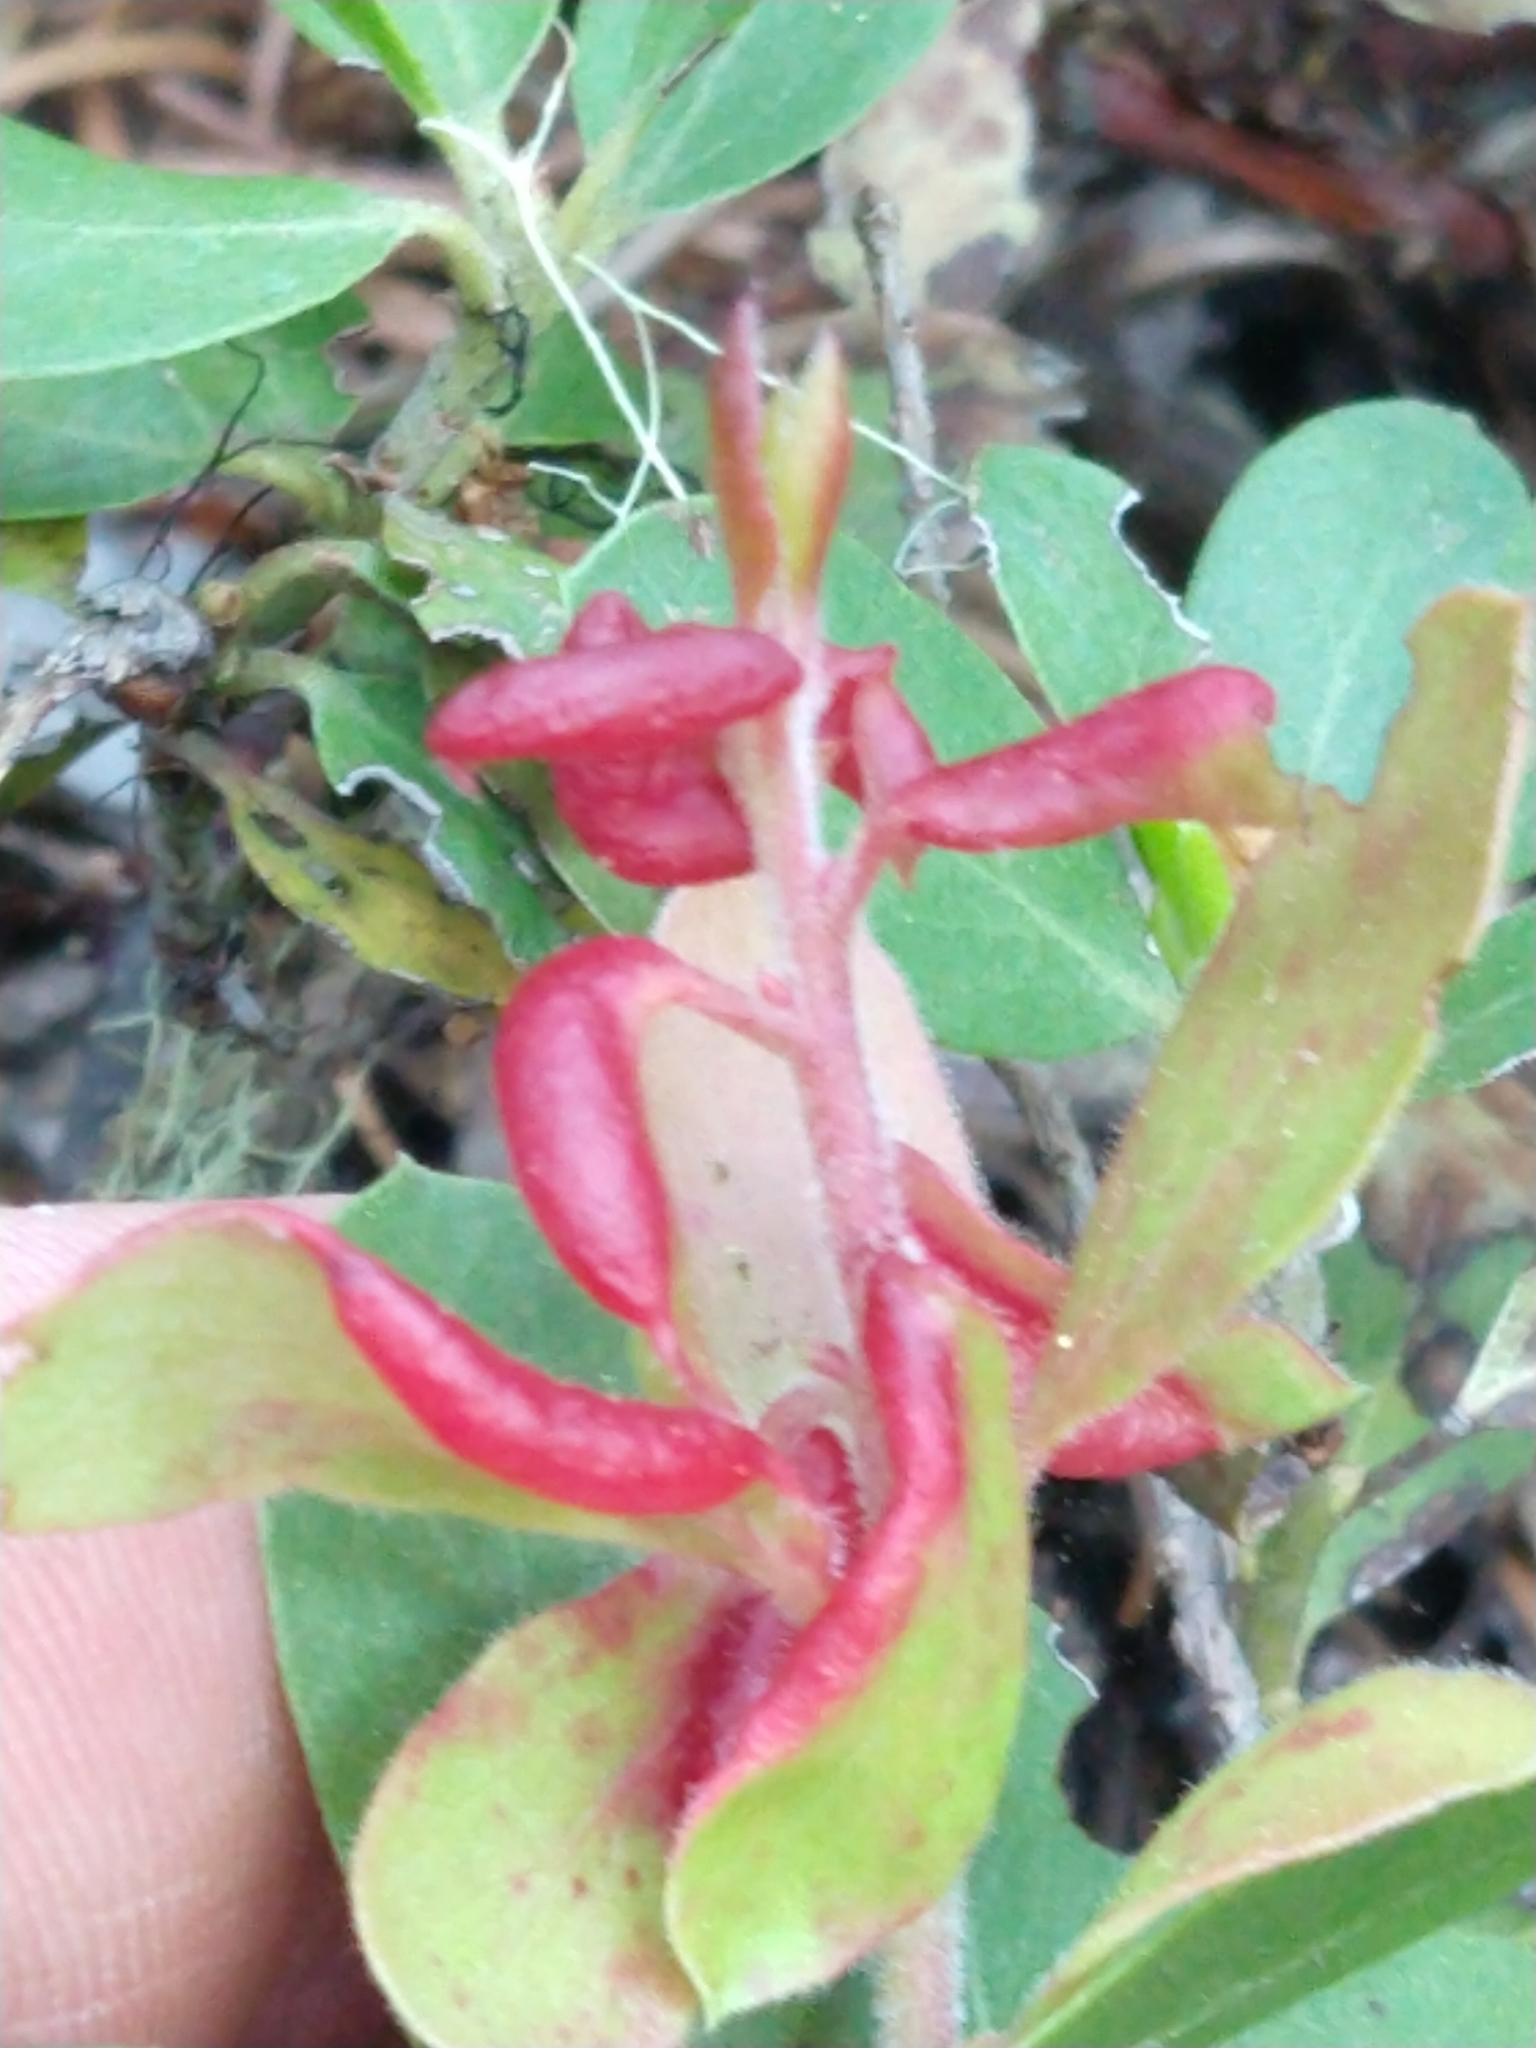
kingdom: Animalia
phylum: Arthropoda
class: Insecta
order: Hemiptera
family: Aphididae
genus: Tamalia
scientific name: Tamalia coweni
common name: Manzanita leafgall aphid
